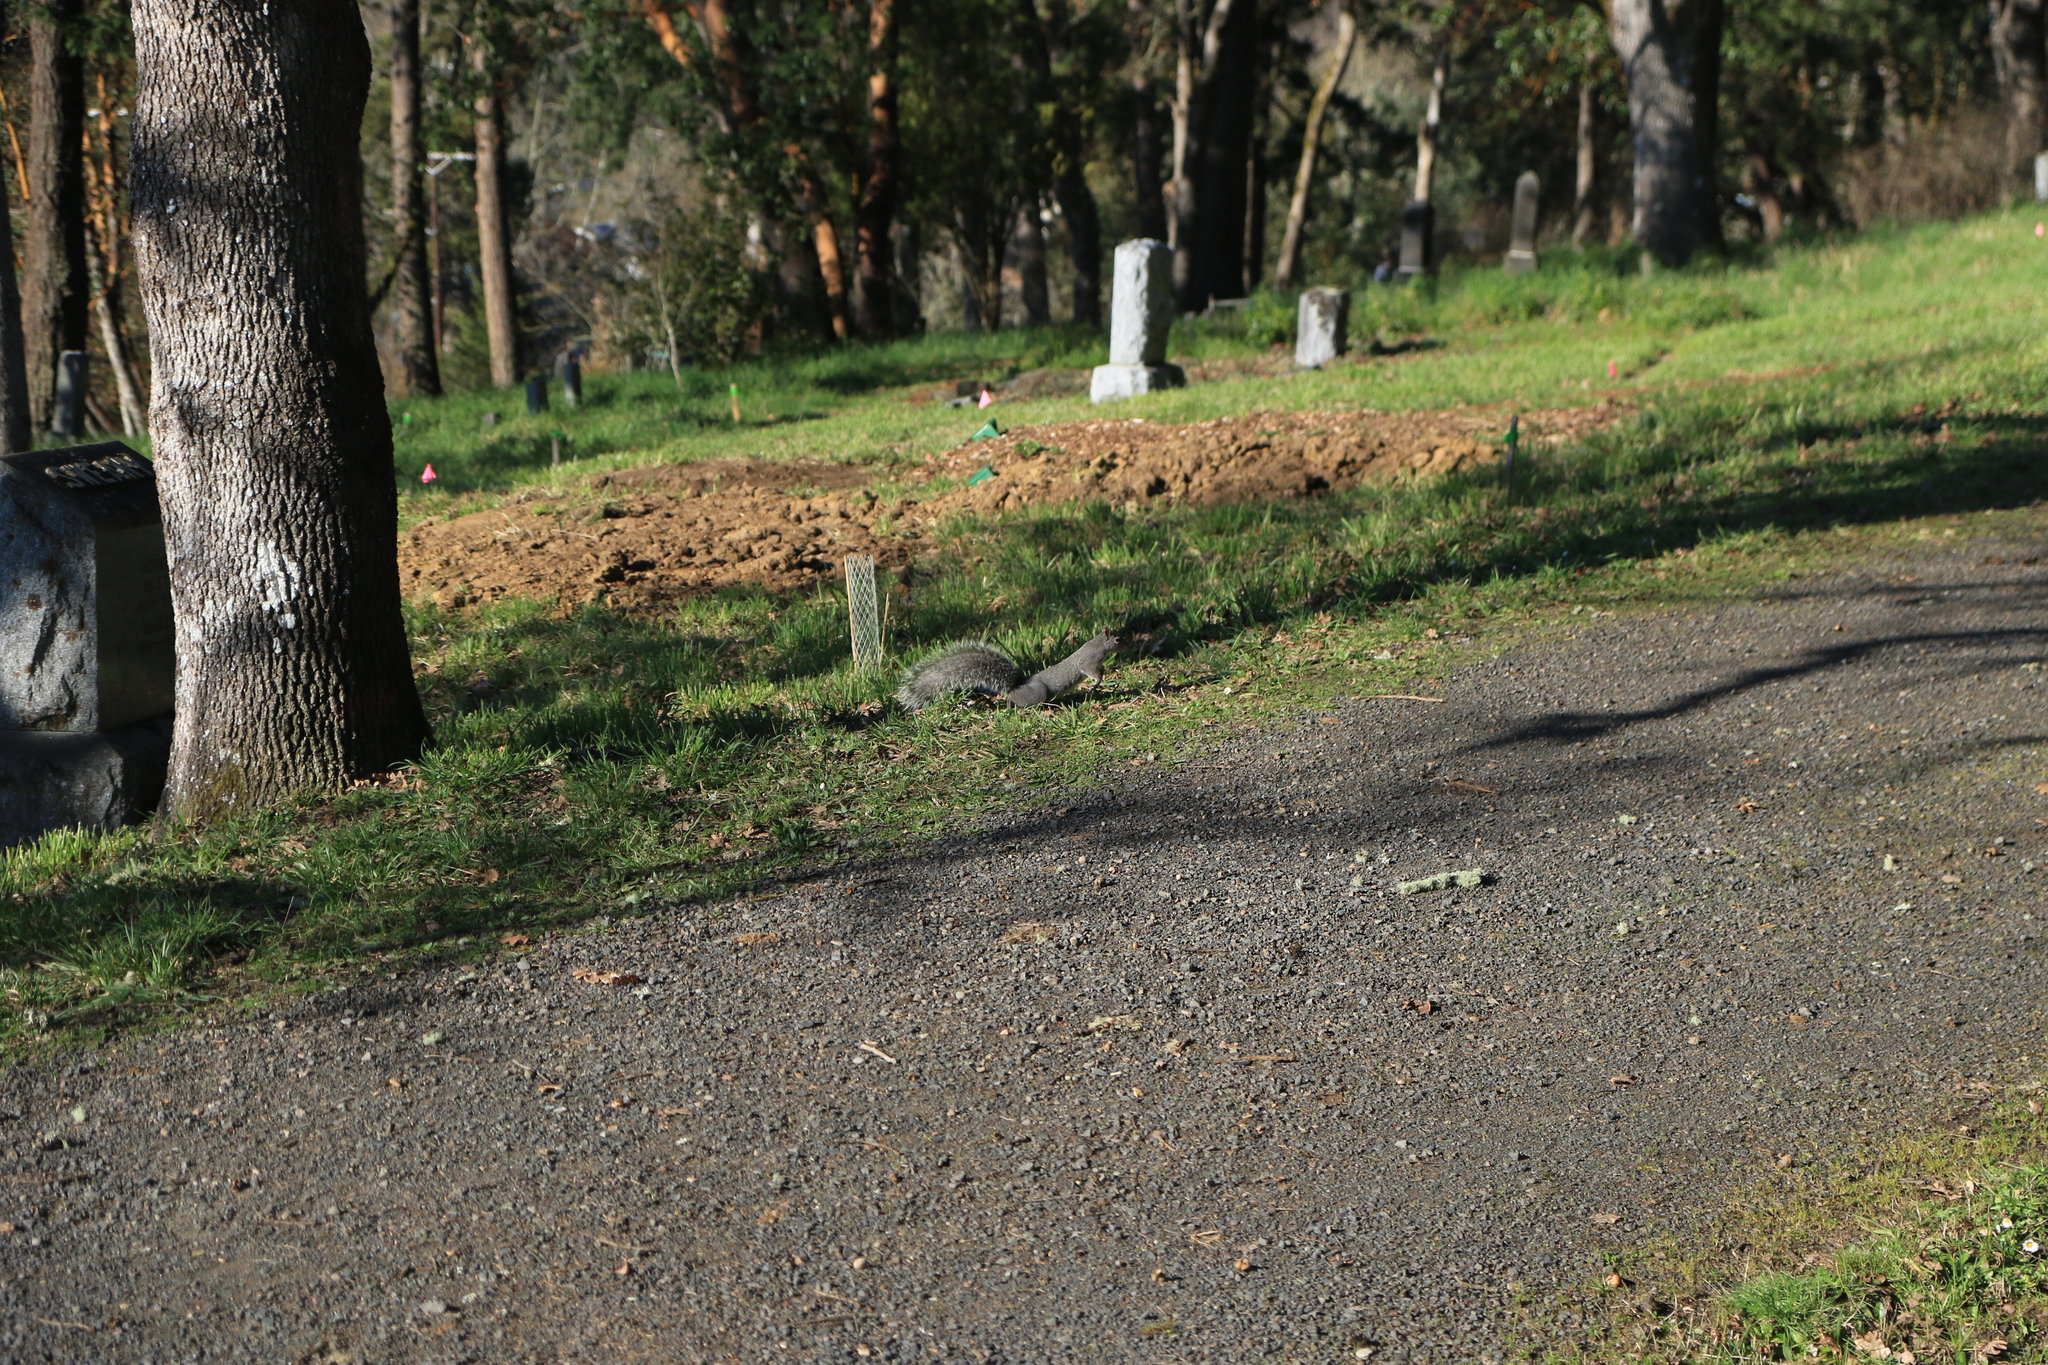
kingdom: Animalia
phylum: Chordata
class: Mammalia
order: Rodentia
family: Sciuridae
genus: Sciurus
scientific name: Sciurus griseus
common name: Western gray squirrel
